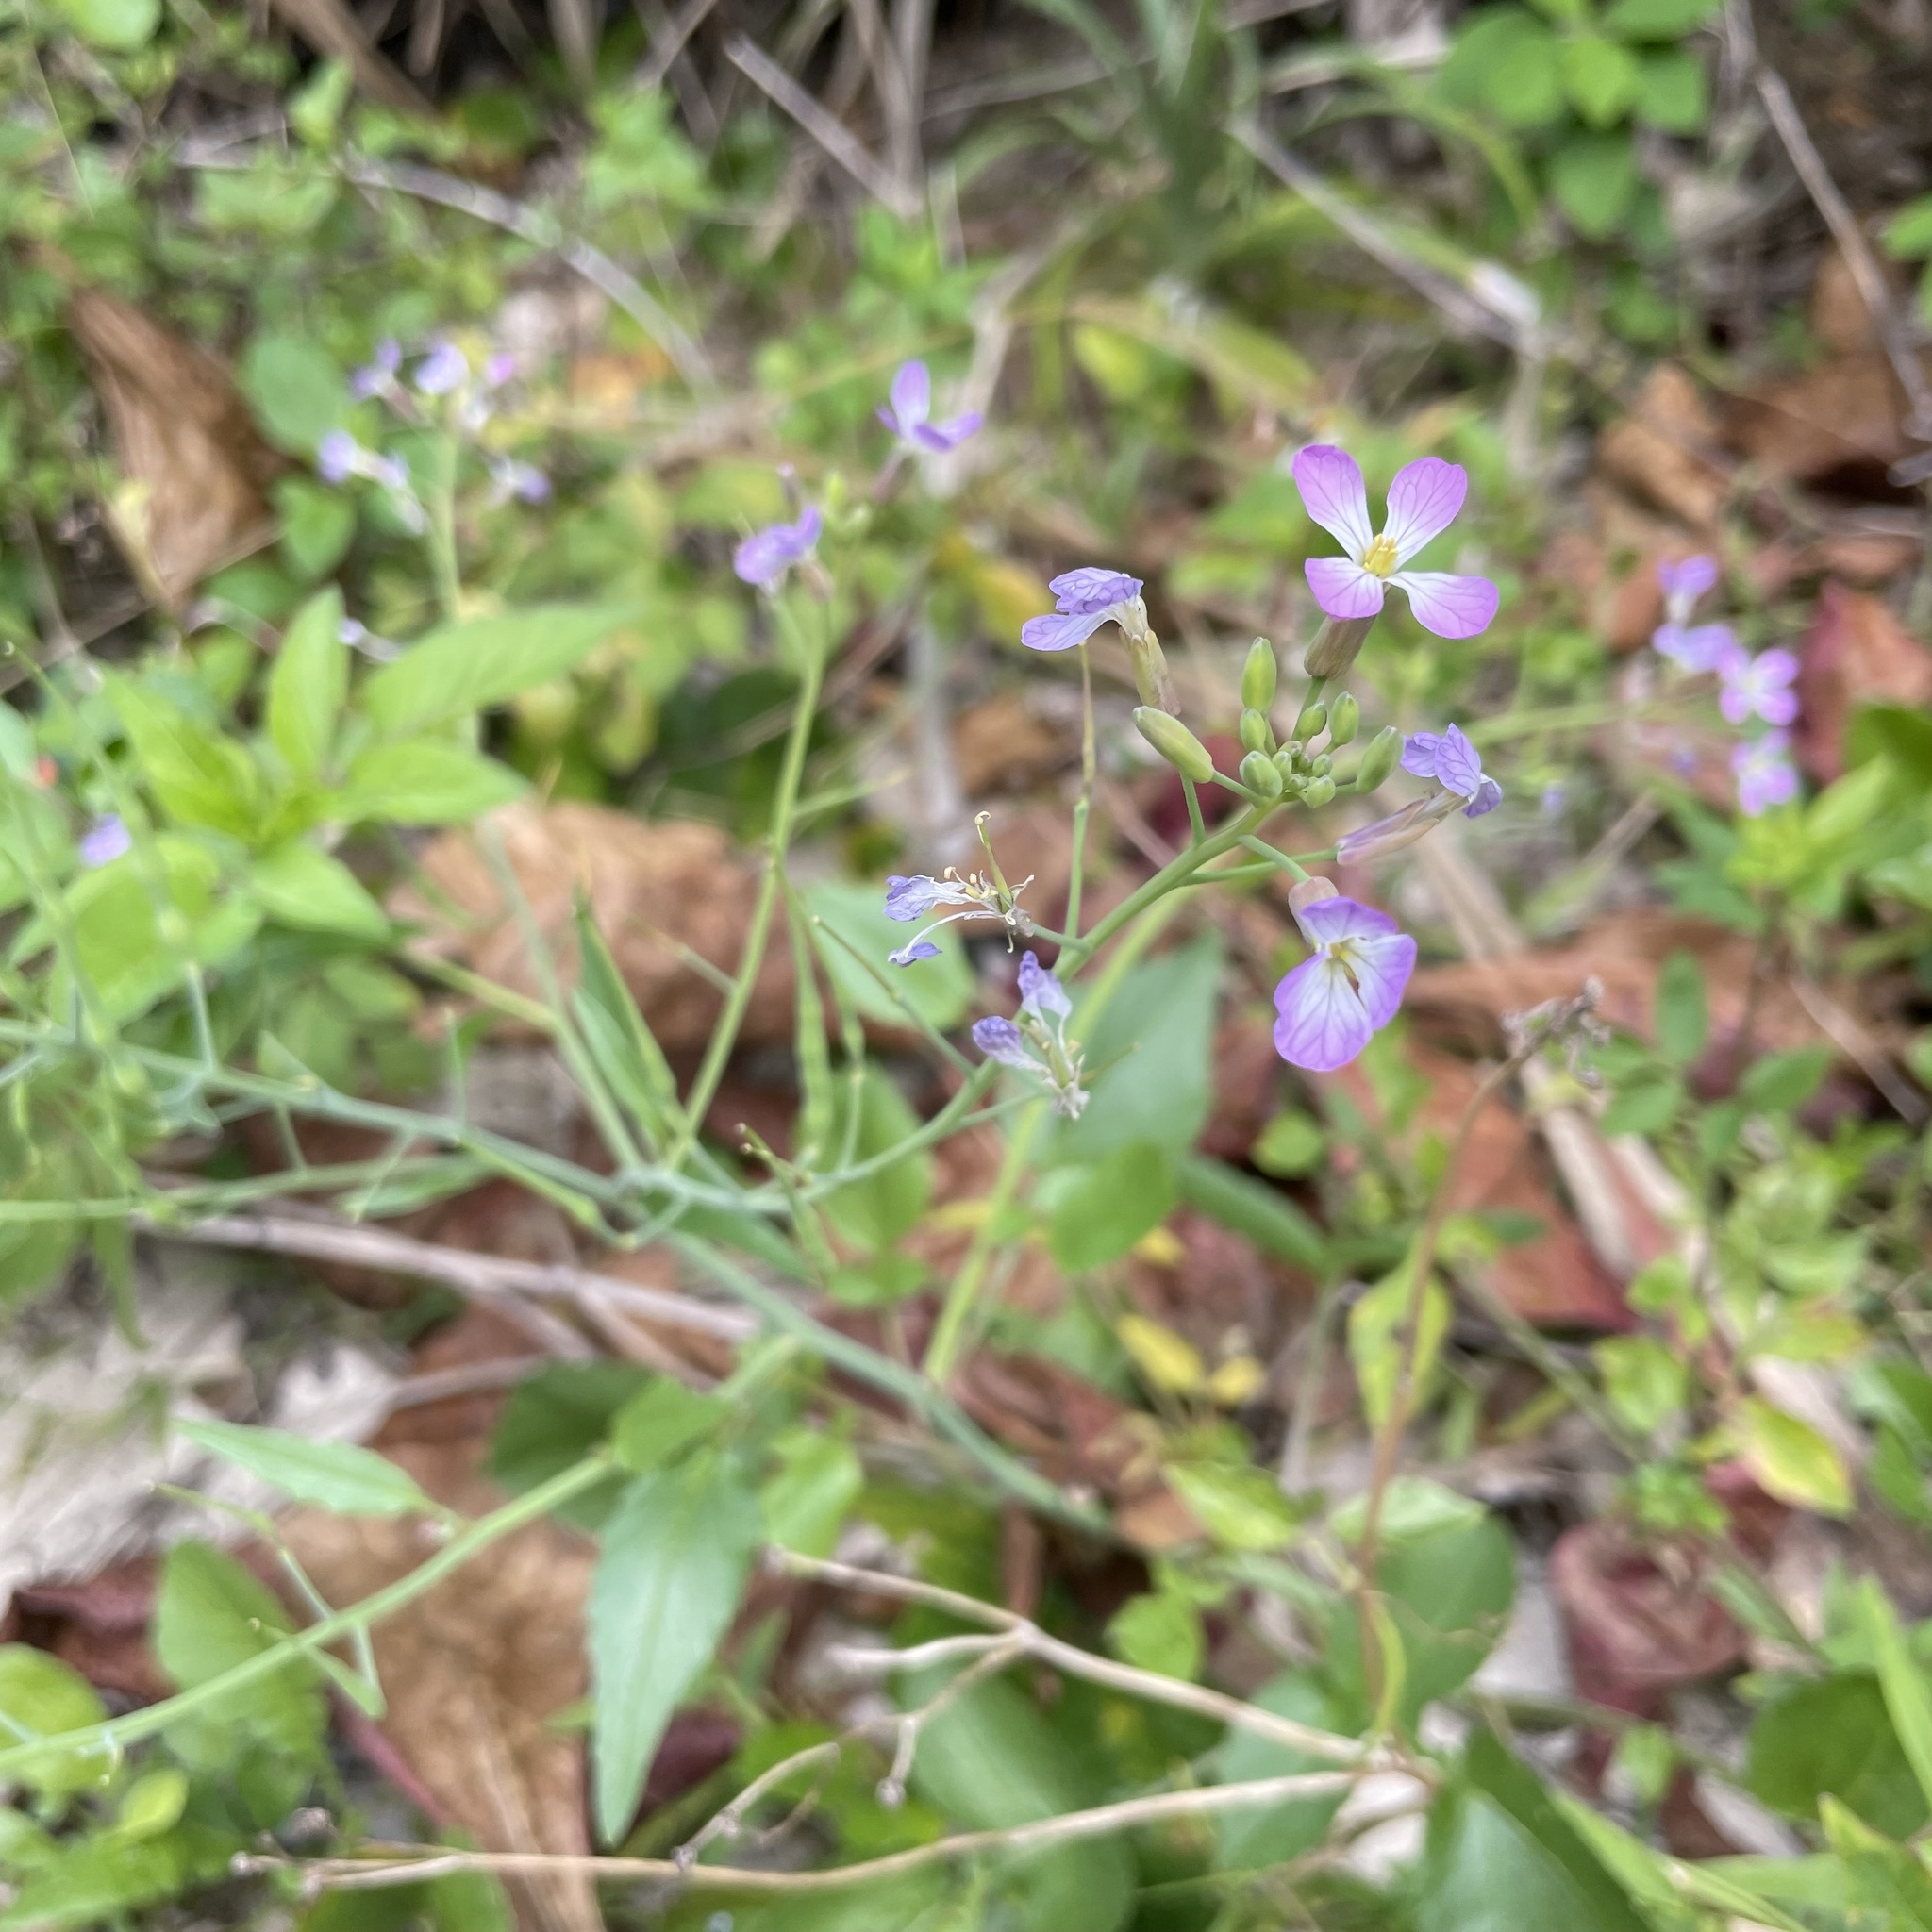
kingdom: Plantae
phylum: Tracheophyta
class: Magnoliopsida
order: Brassicales
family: Brassicaceae
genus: Raphanus
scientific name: Raphanus sativus
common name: Cultivated radish
